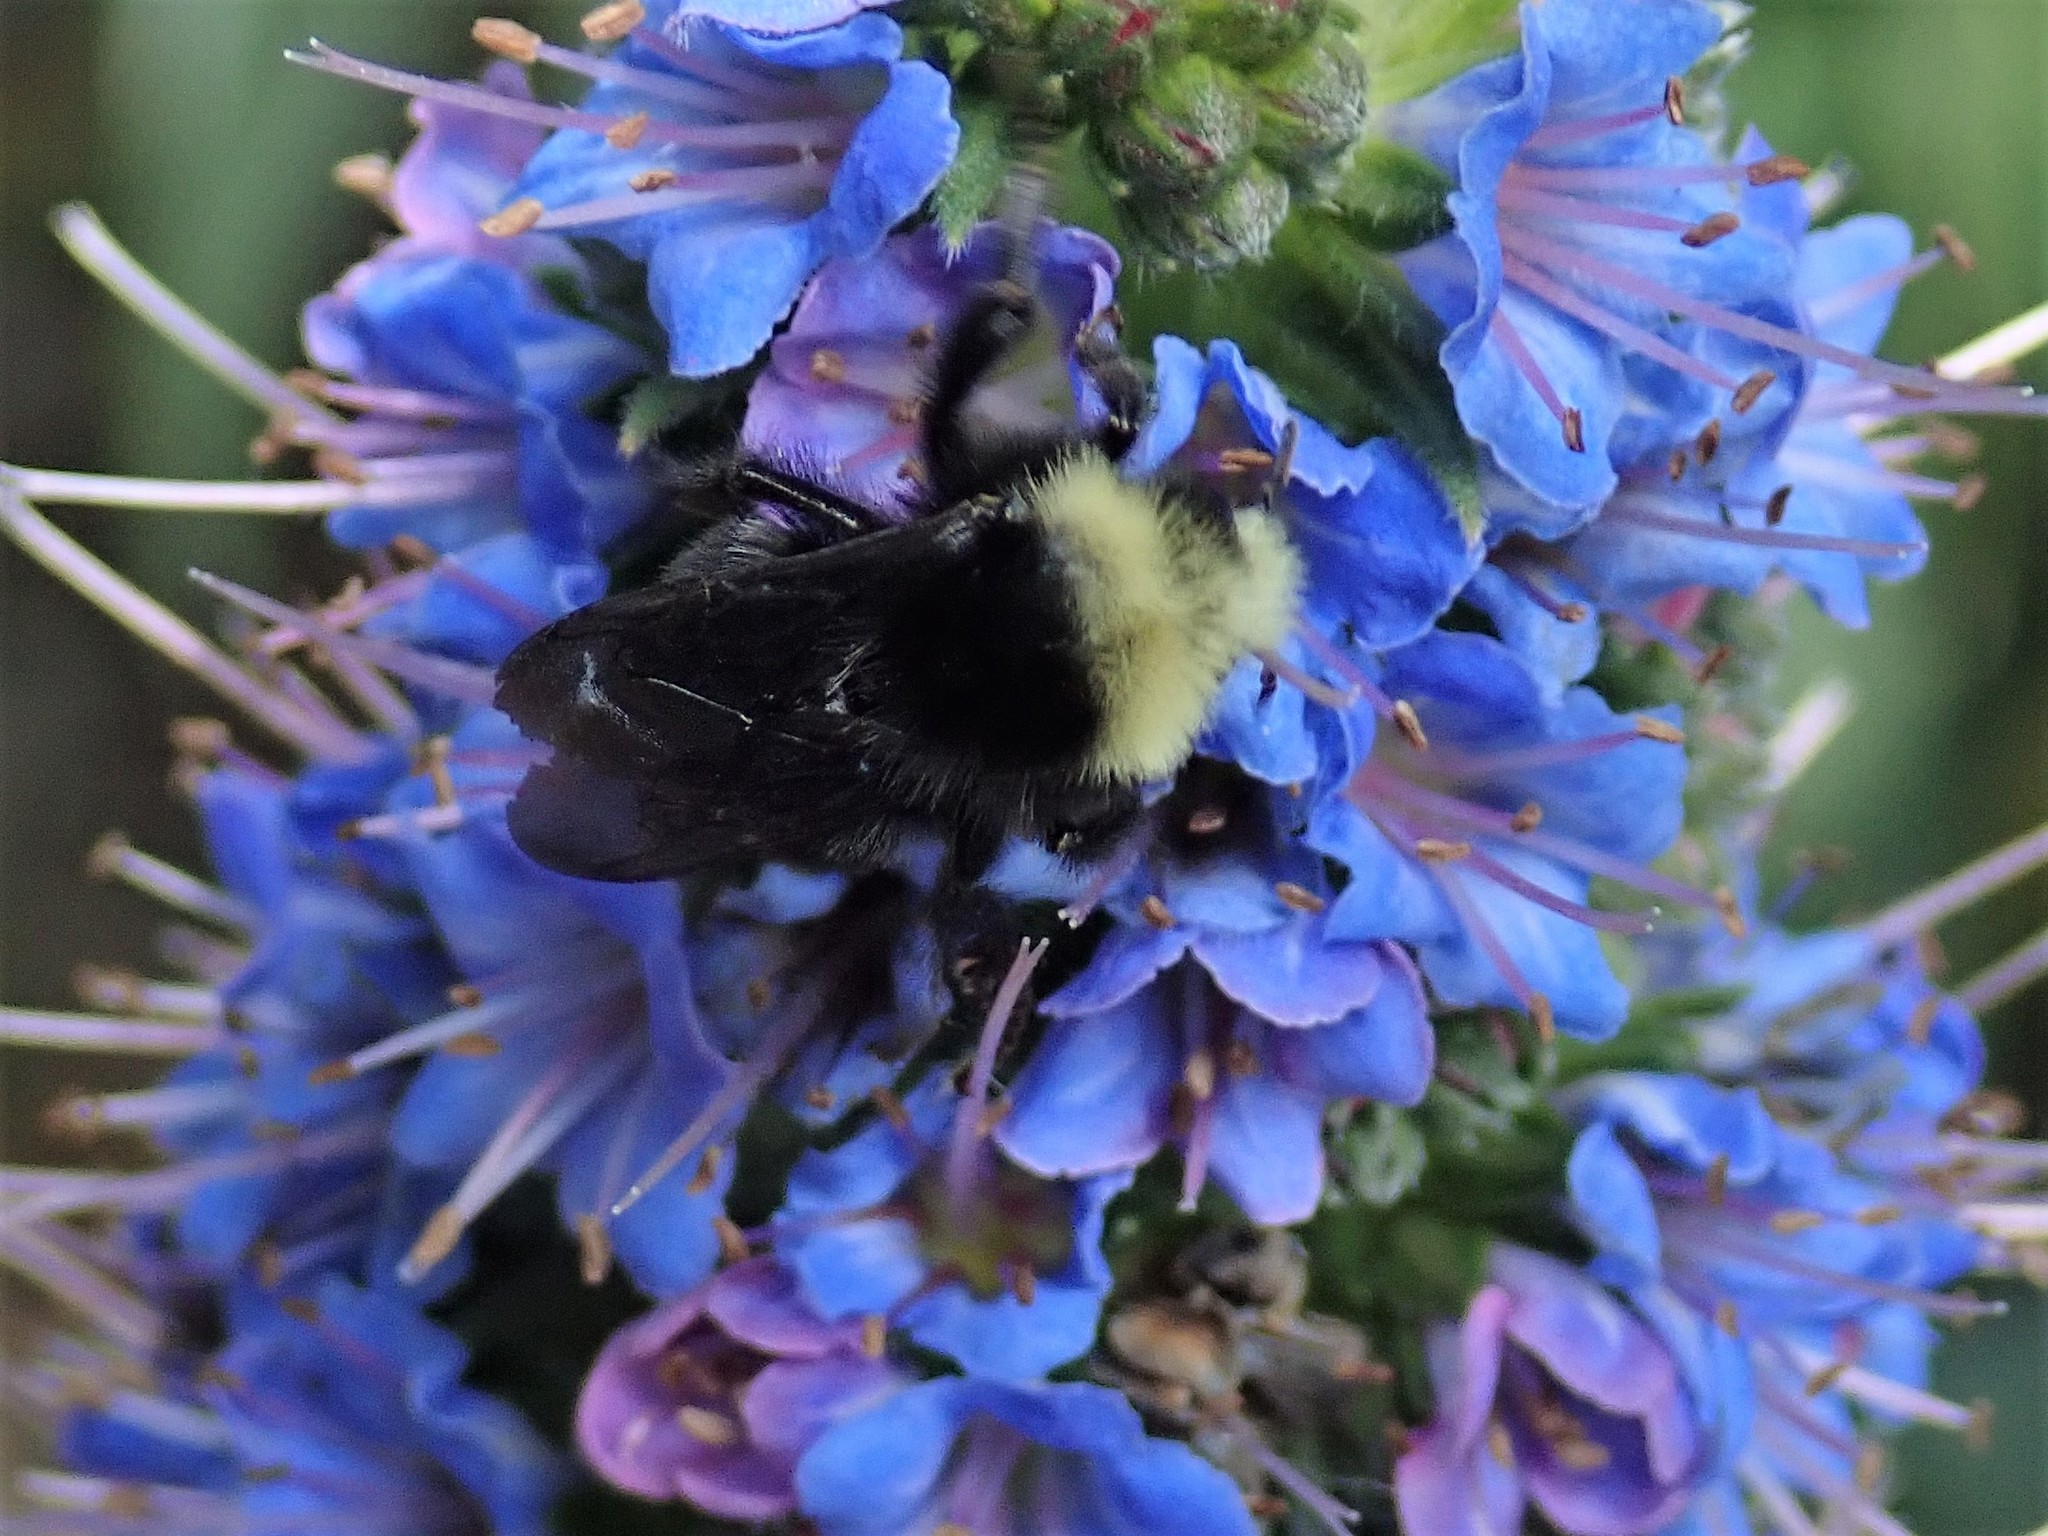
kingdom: Animalia
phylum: Arthropoda
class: Insecta
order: Hymenoptera
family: Apidae
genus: Pyrobombus
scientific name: Pyrobombus
